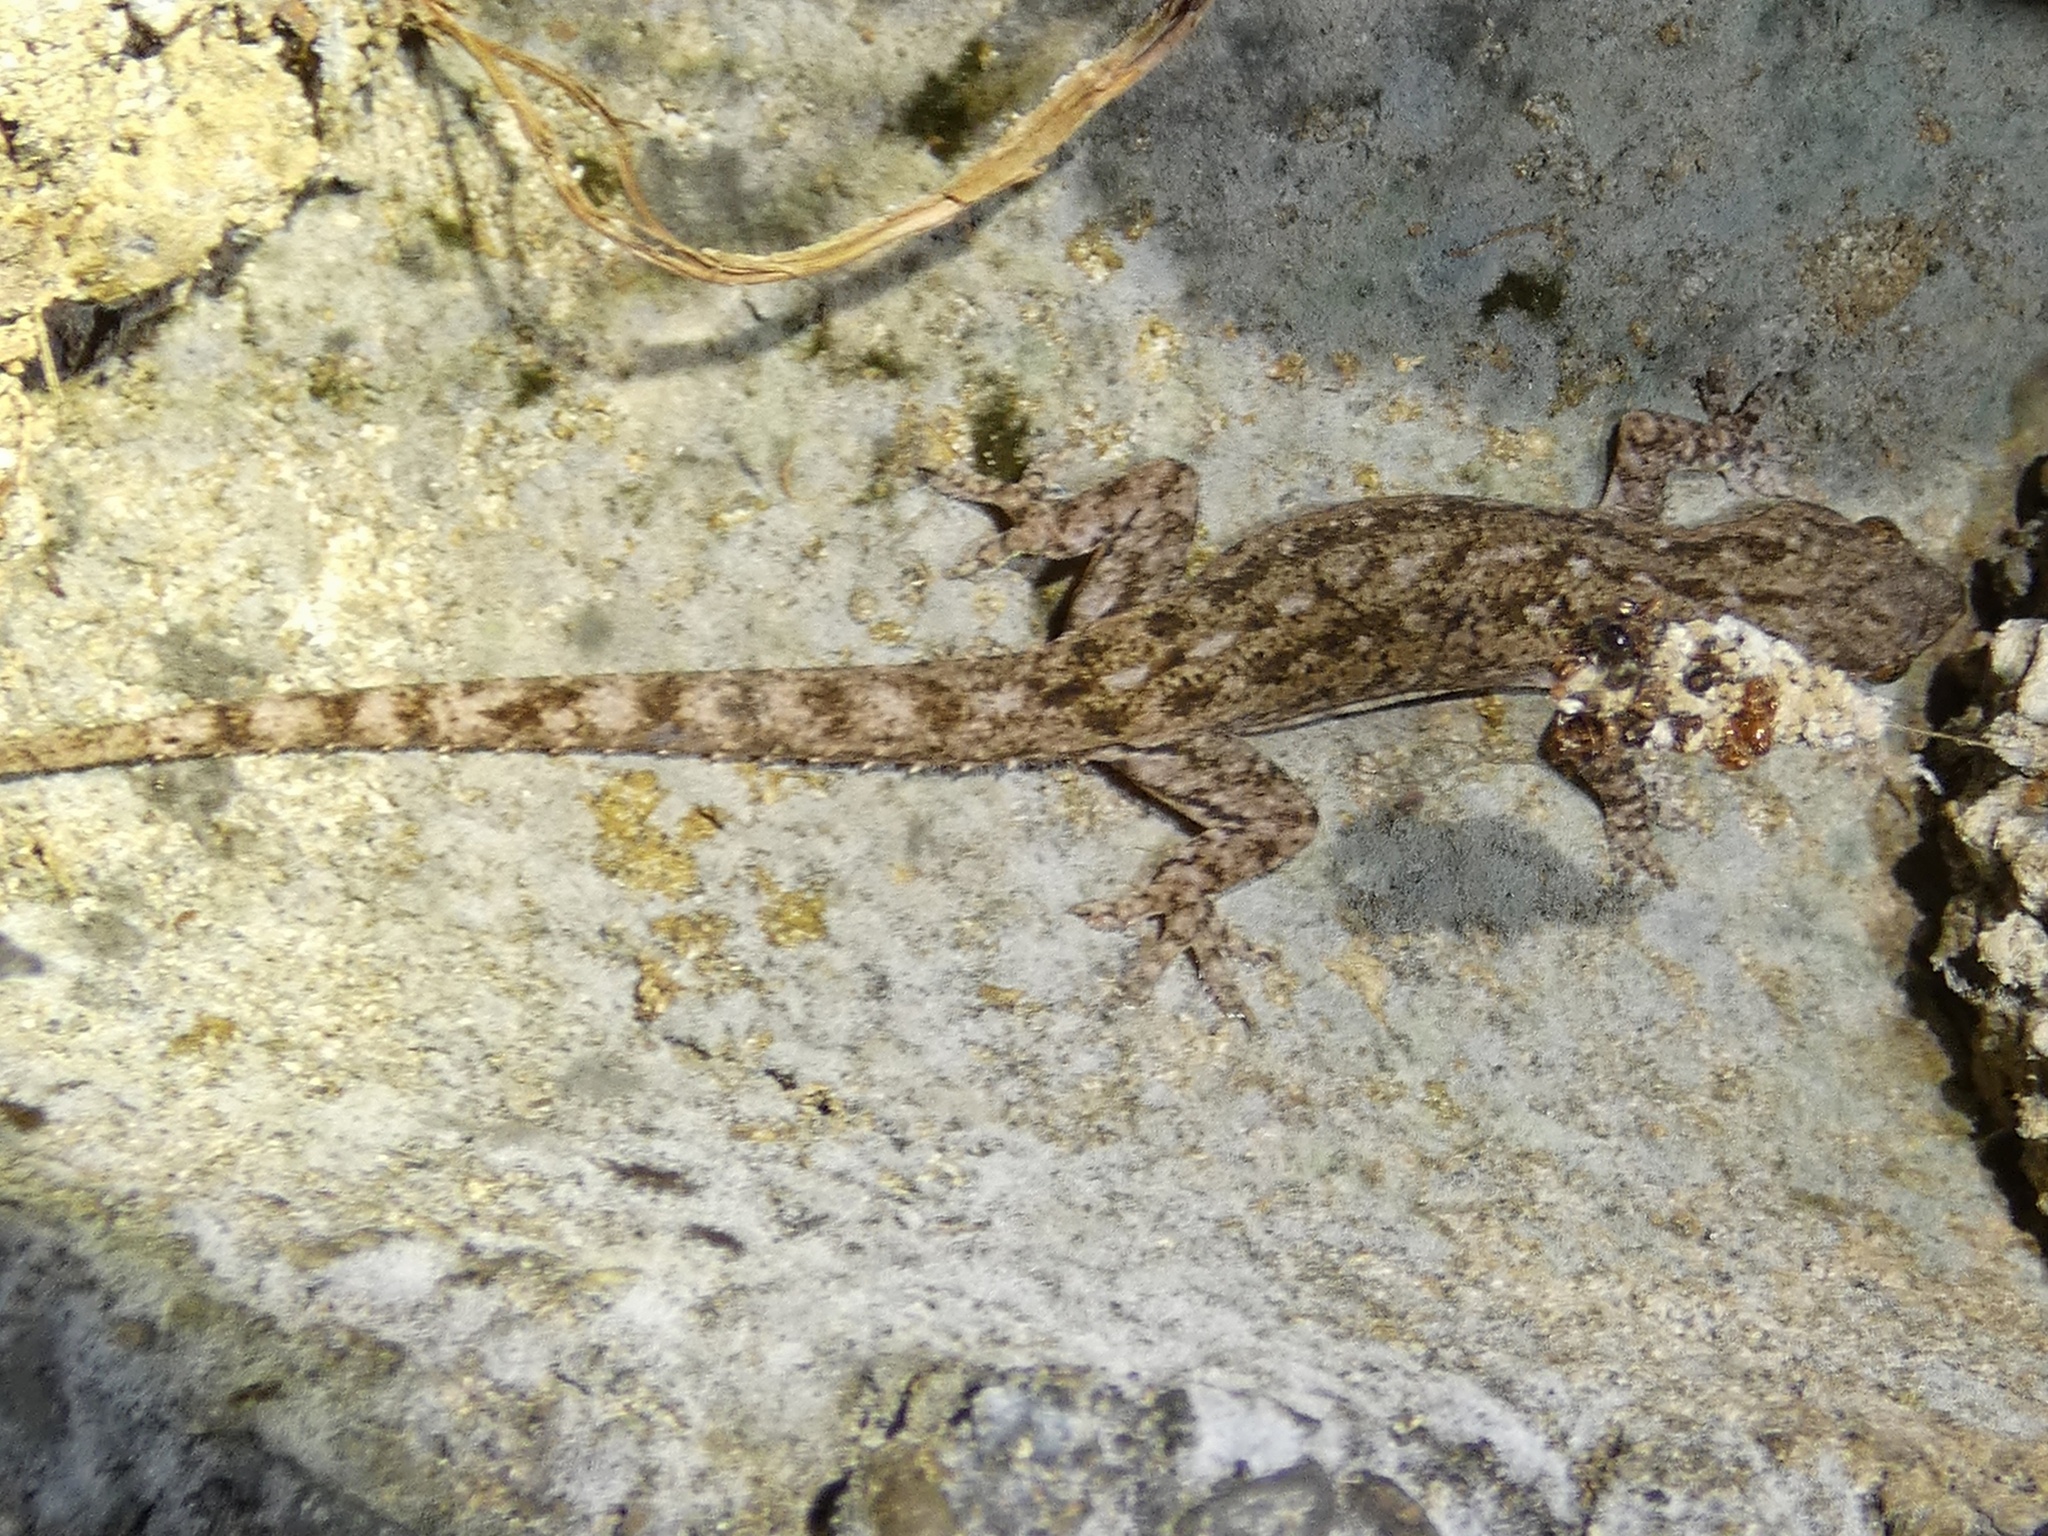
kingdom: Animalia
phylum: Chordata
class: Squamata
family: Gekkonidae
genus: Hemidactylus
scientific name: Hemidactylus frenatus
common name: Common house gecko
